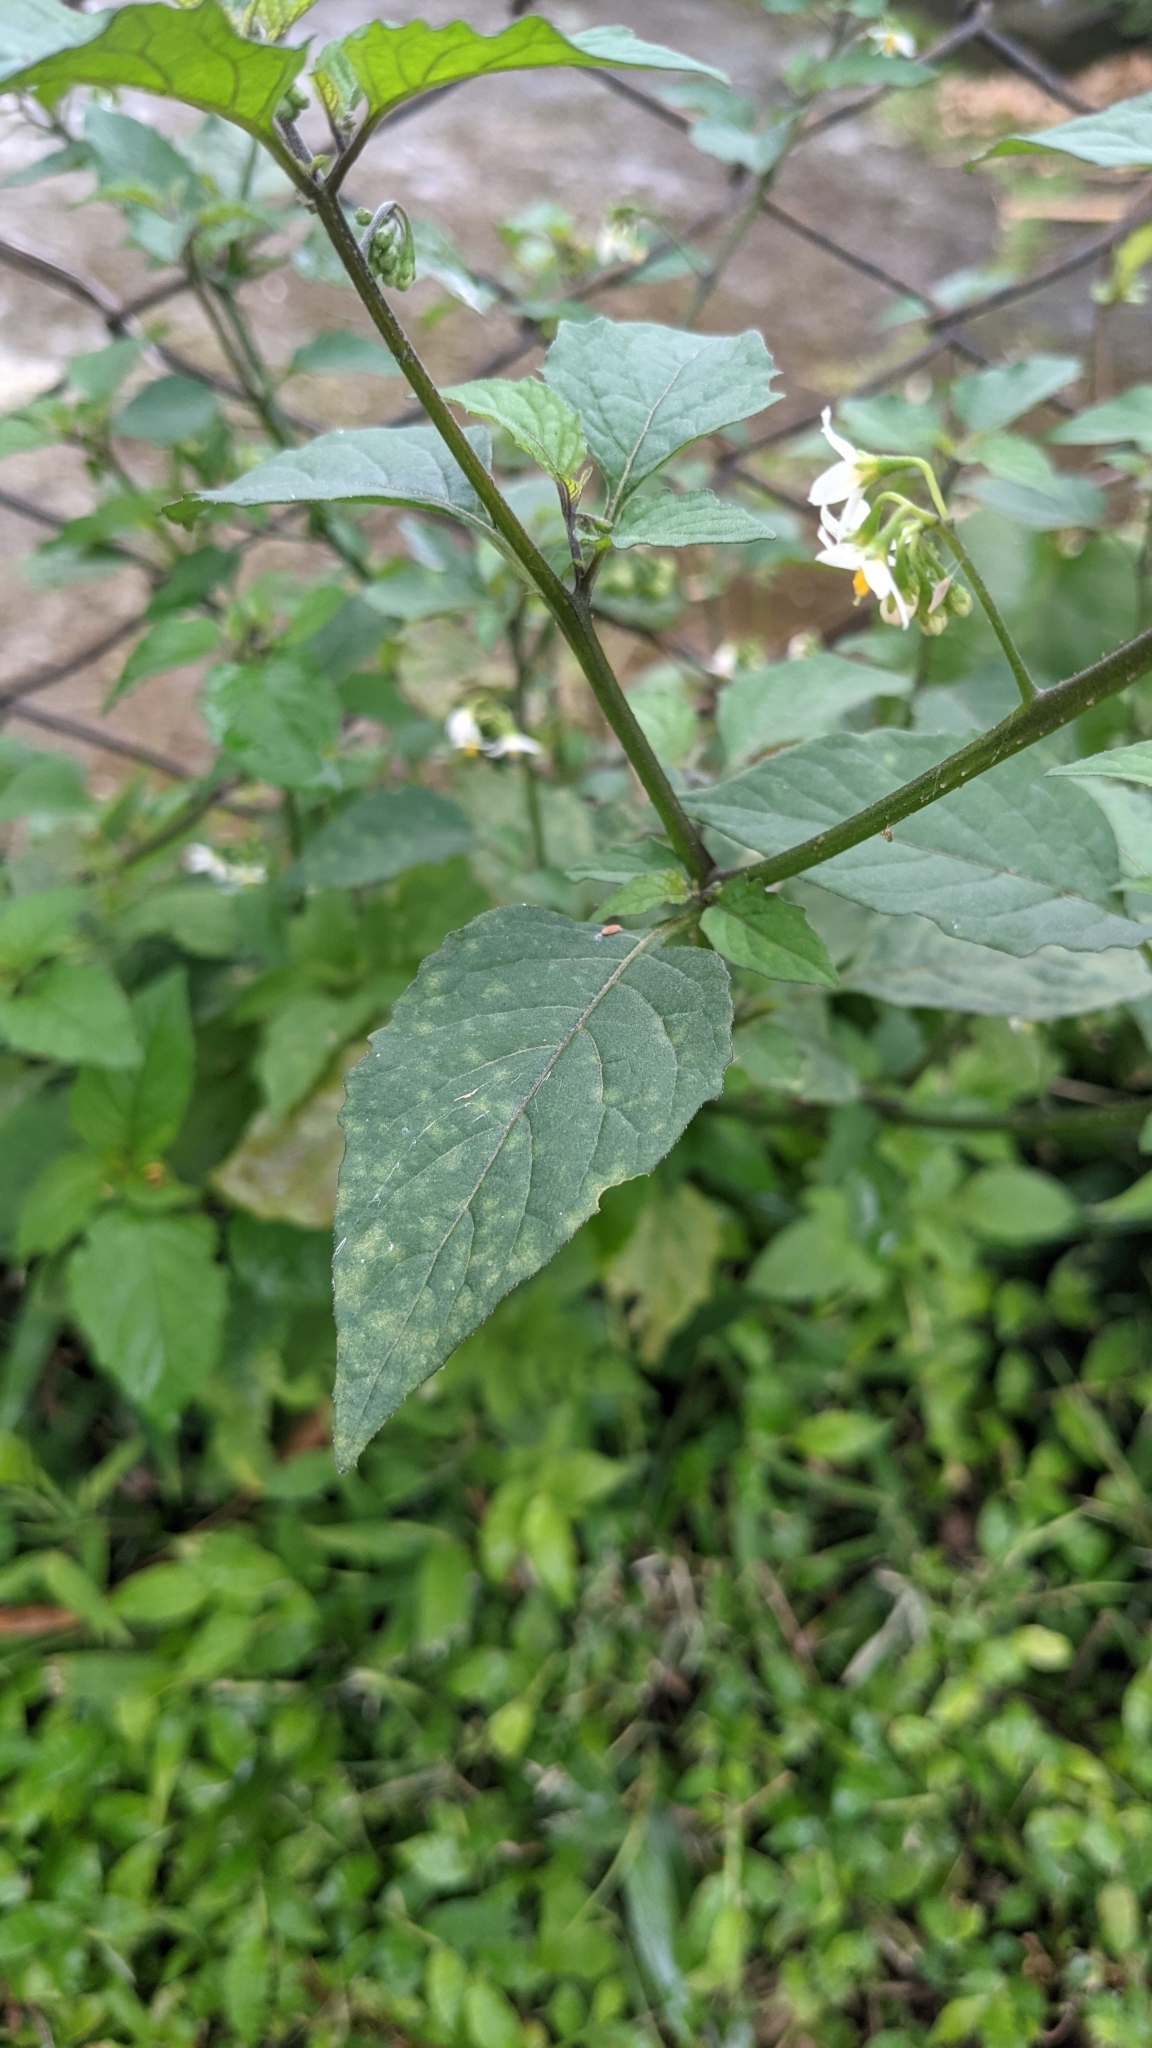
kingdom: Plantae
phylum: Tracheophyta
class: Magnoliopsida
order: Solanales
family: Solanaceae
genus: Solanum
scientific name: Solanum americanum
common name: American black nightshade
